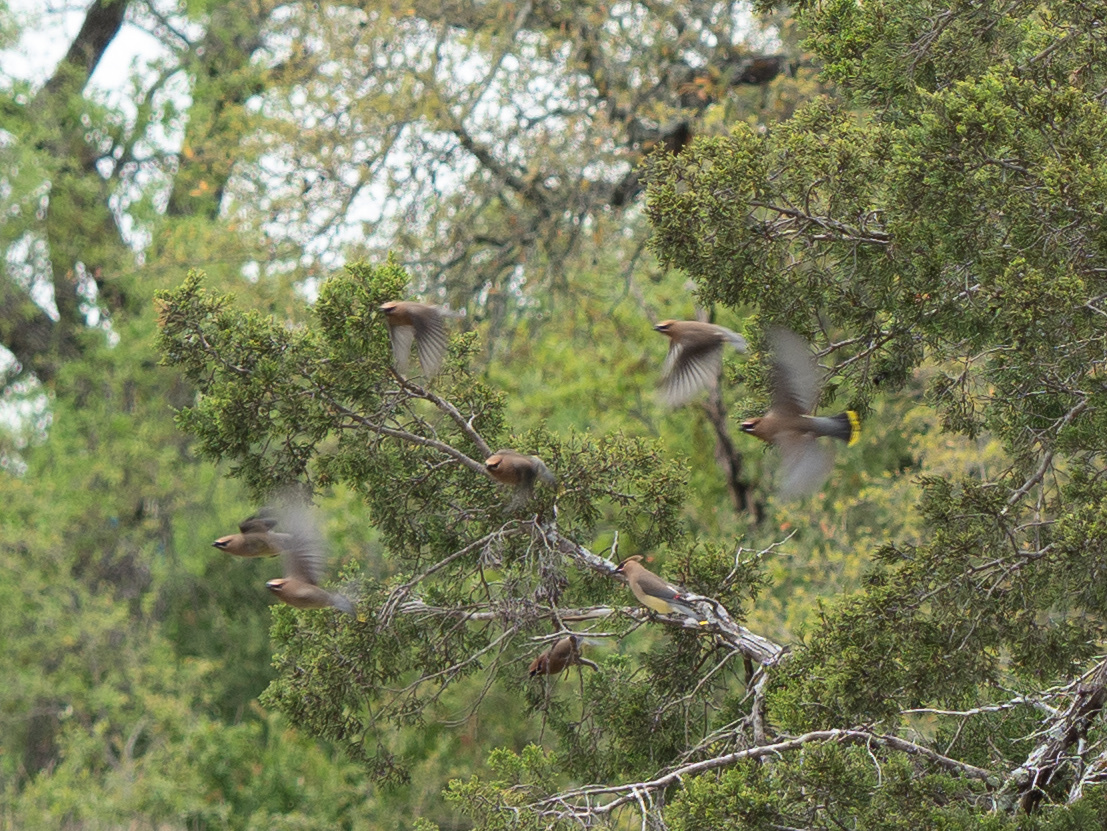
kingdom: Animalia
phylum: Chordata
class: Aves
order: Passeriformes
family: Bombycillidae
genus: Bombycilla
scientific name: Bombycilla cedrorum
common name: Cedar waxwing
